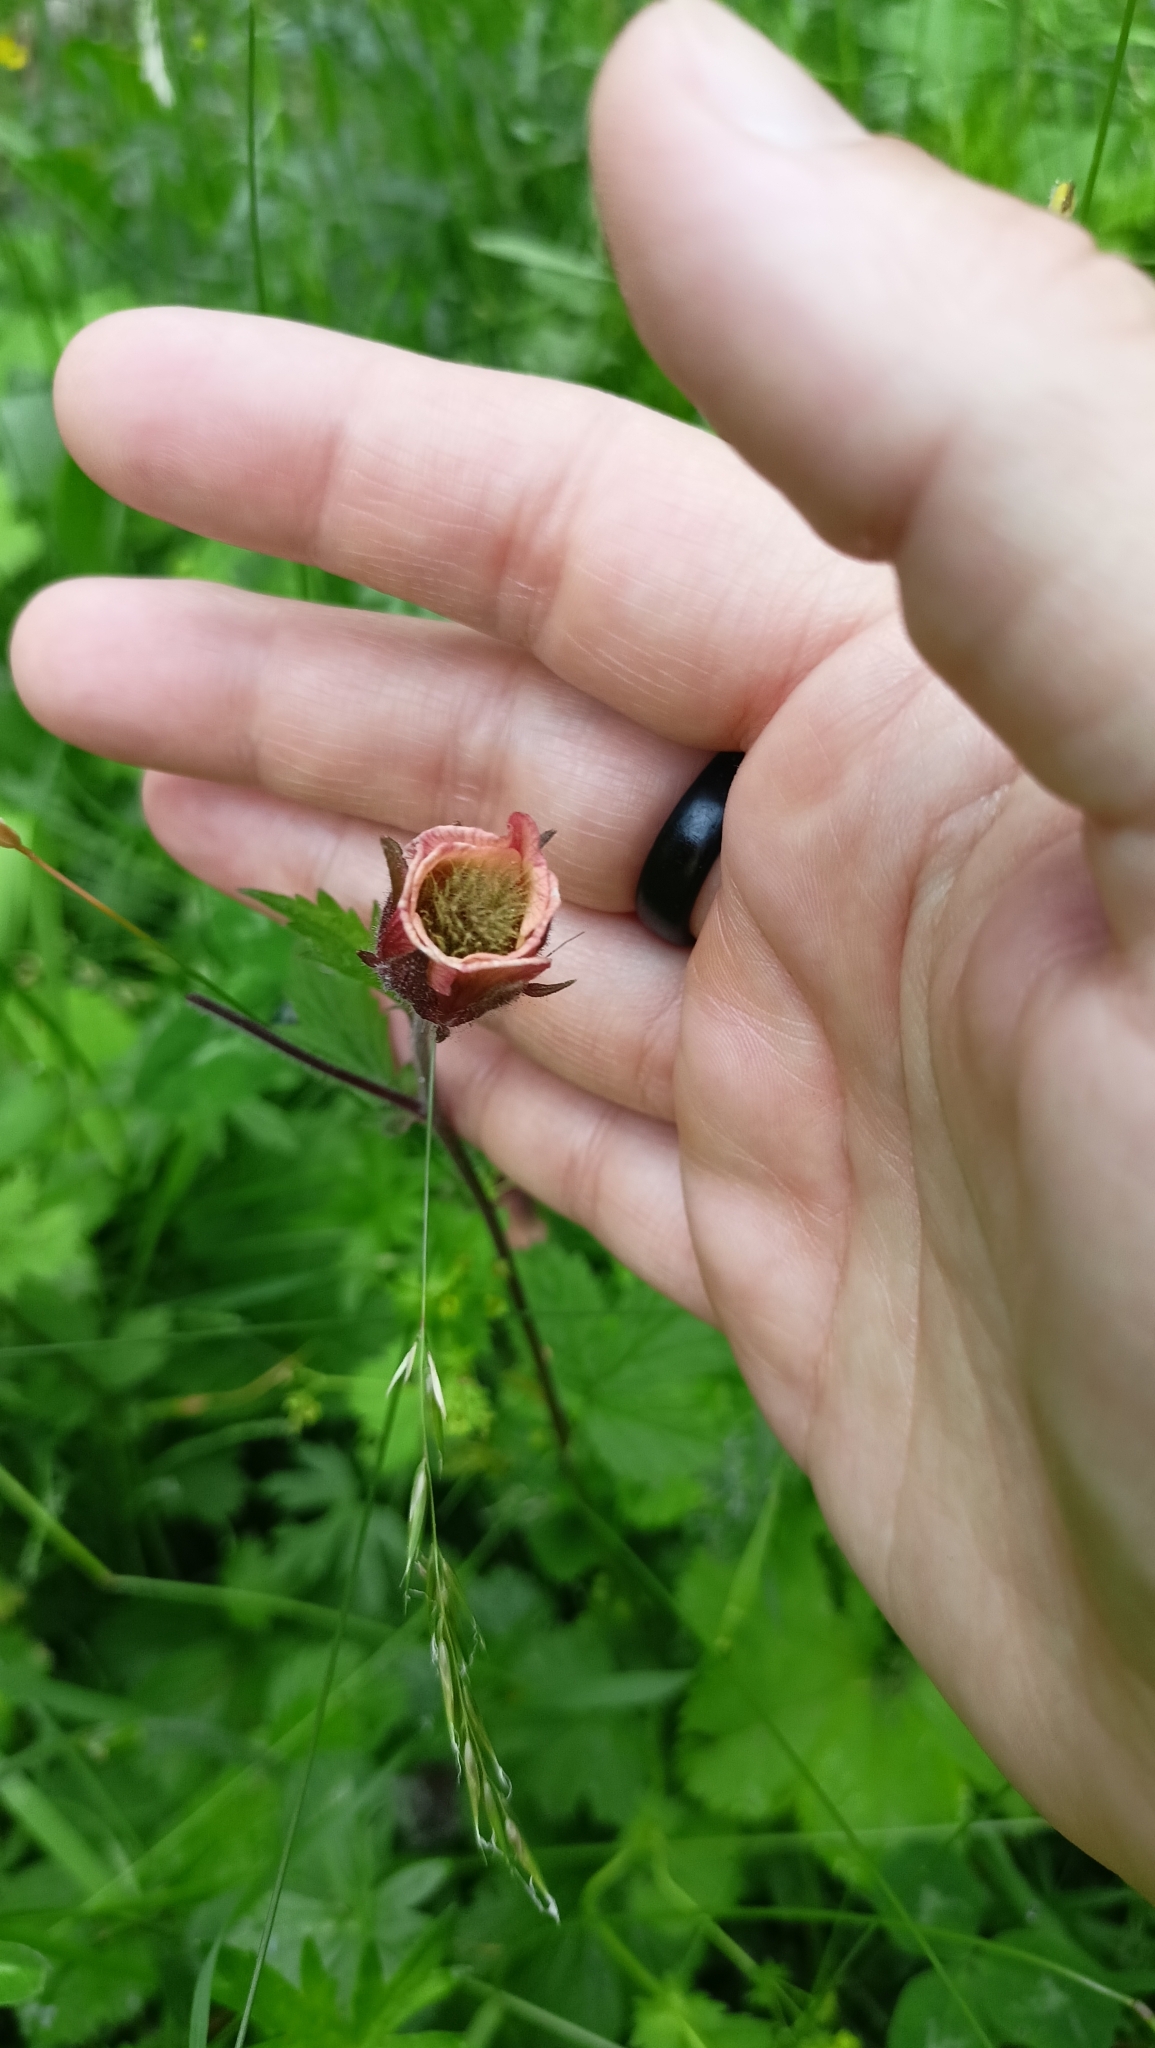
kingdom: Plantae
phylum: Tracheophyta
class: Magnoliopsida
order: Rosales
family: Rosaceae
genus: Geum
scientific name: Geum rivale
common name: Water avens
